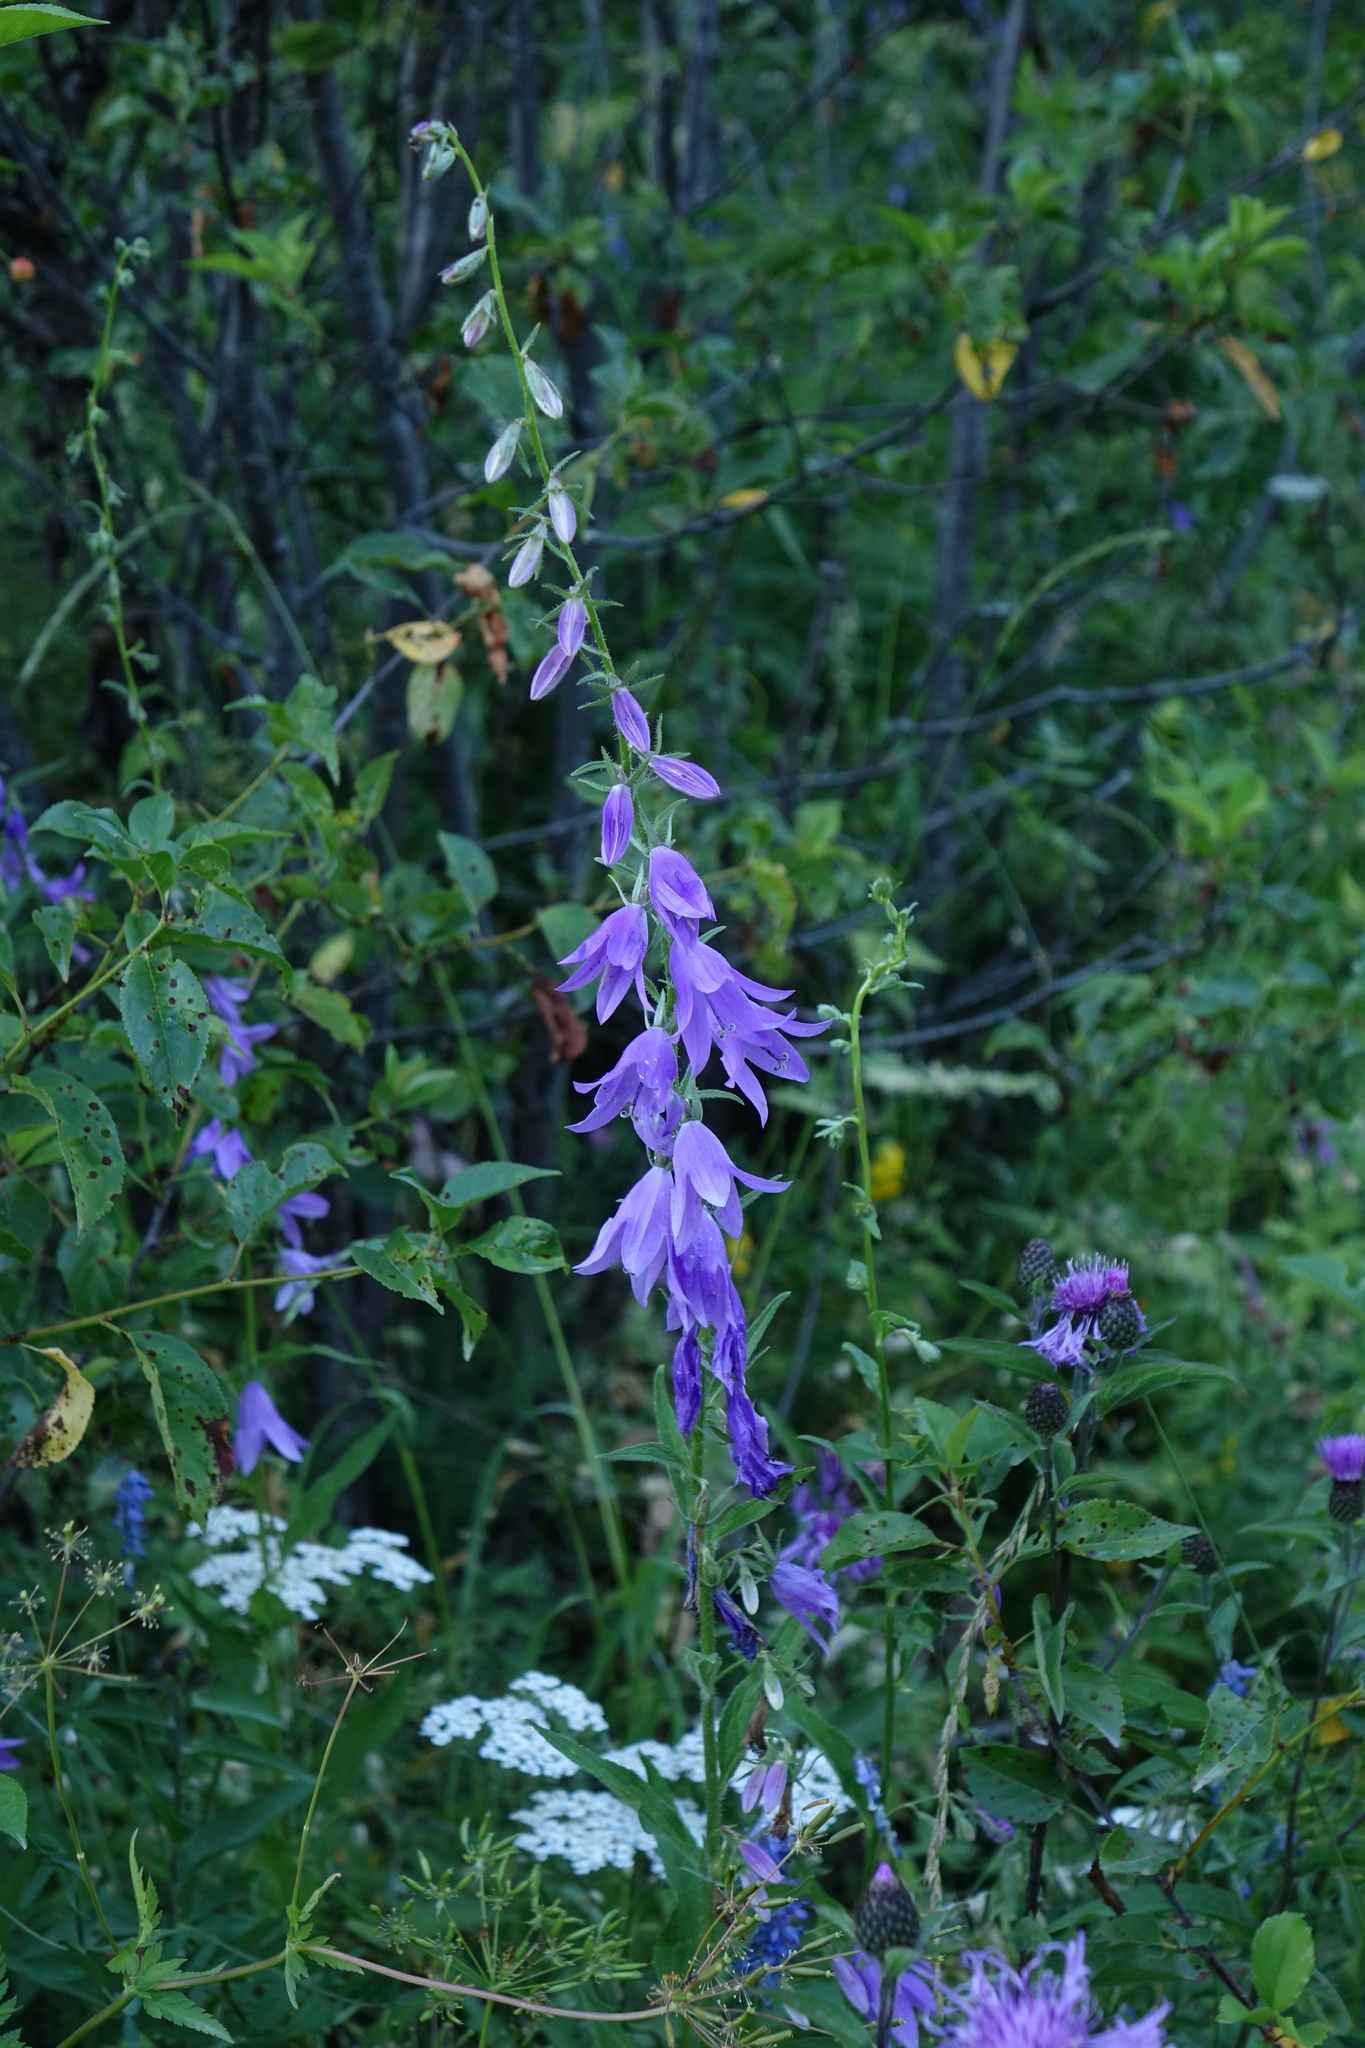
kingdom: Plantae
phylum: Tracheophyta
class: Magnoliopsida
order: Asterales
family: Campanulaceae
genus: Campanula
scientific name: Campanula rapunculoides
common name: Creeping bellflower
